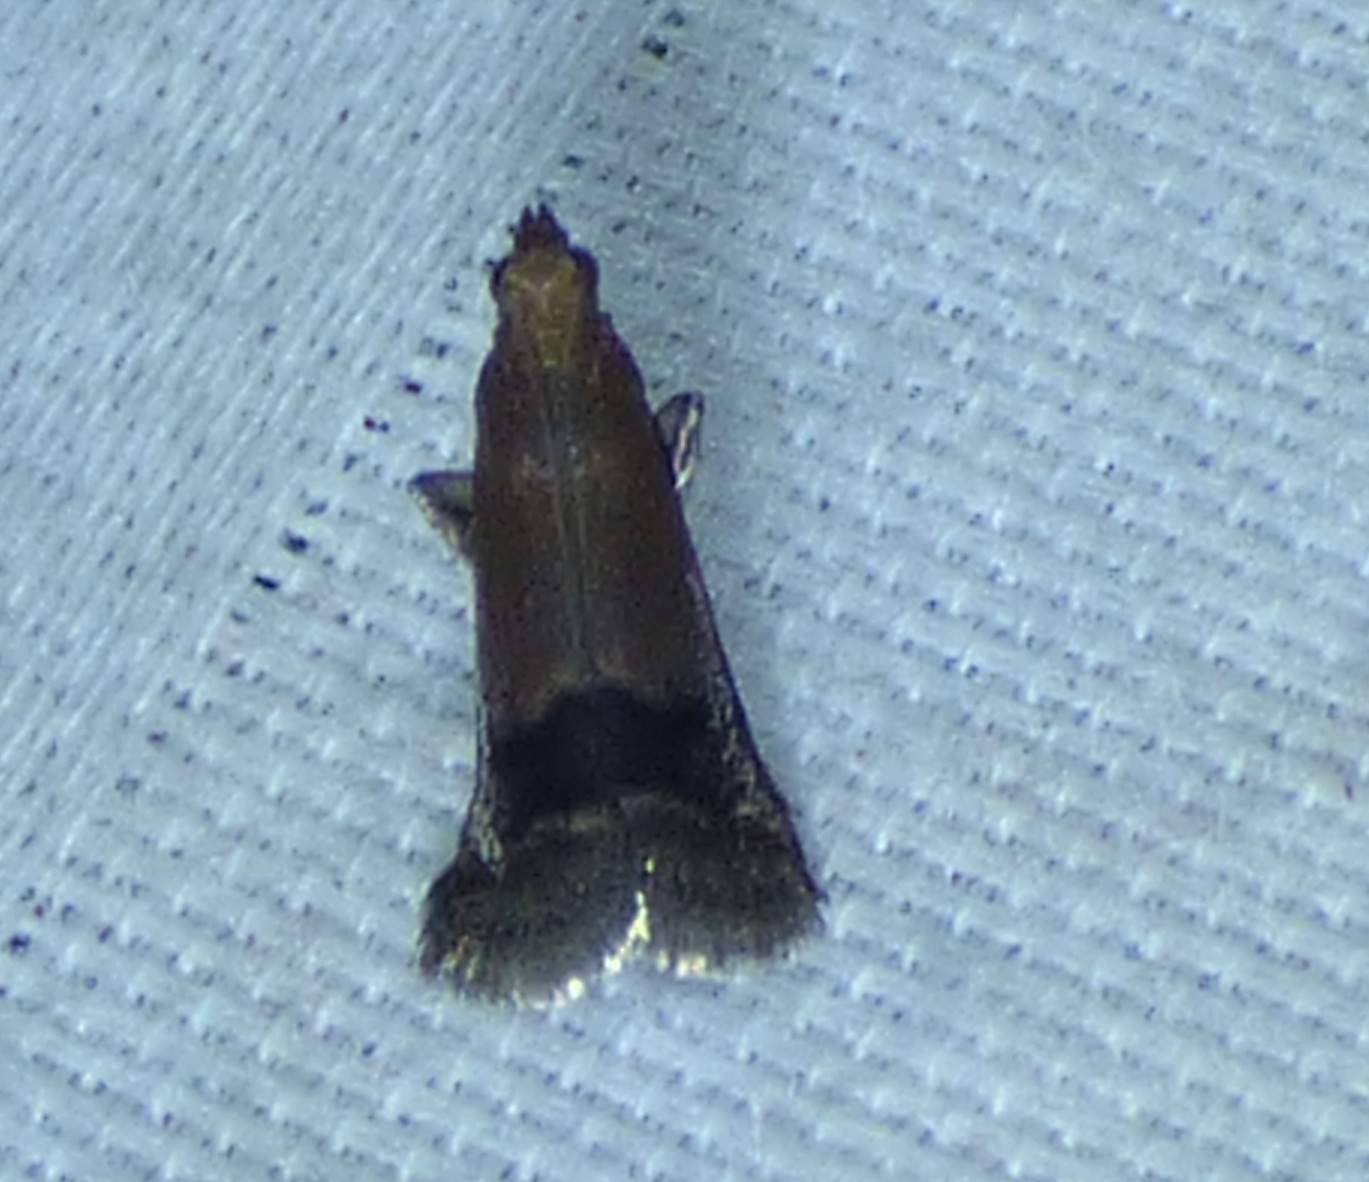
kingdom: Animalia
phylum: Arthropoda
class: Insecta
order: Lepidoptera
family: Pyralidae
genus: Eulogia
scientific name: Eulogia ochrifrontella
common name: Broad-banded eulogia moth
